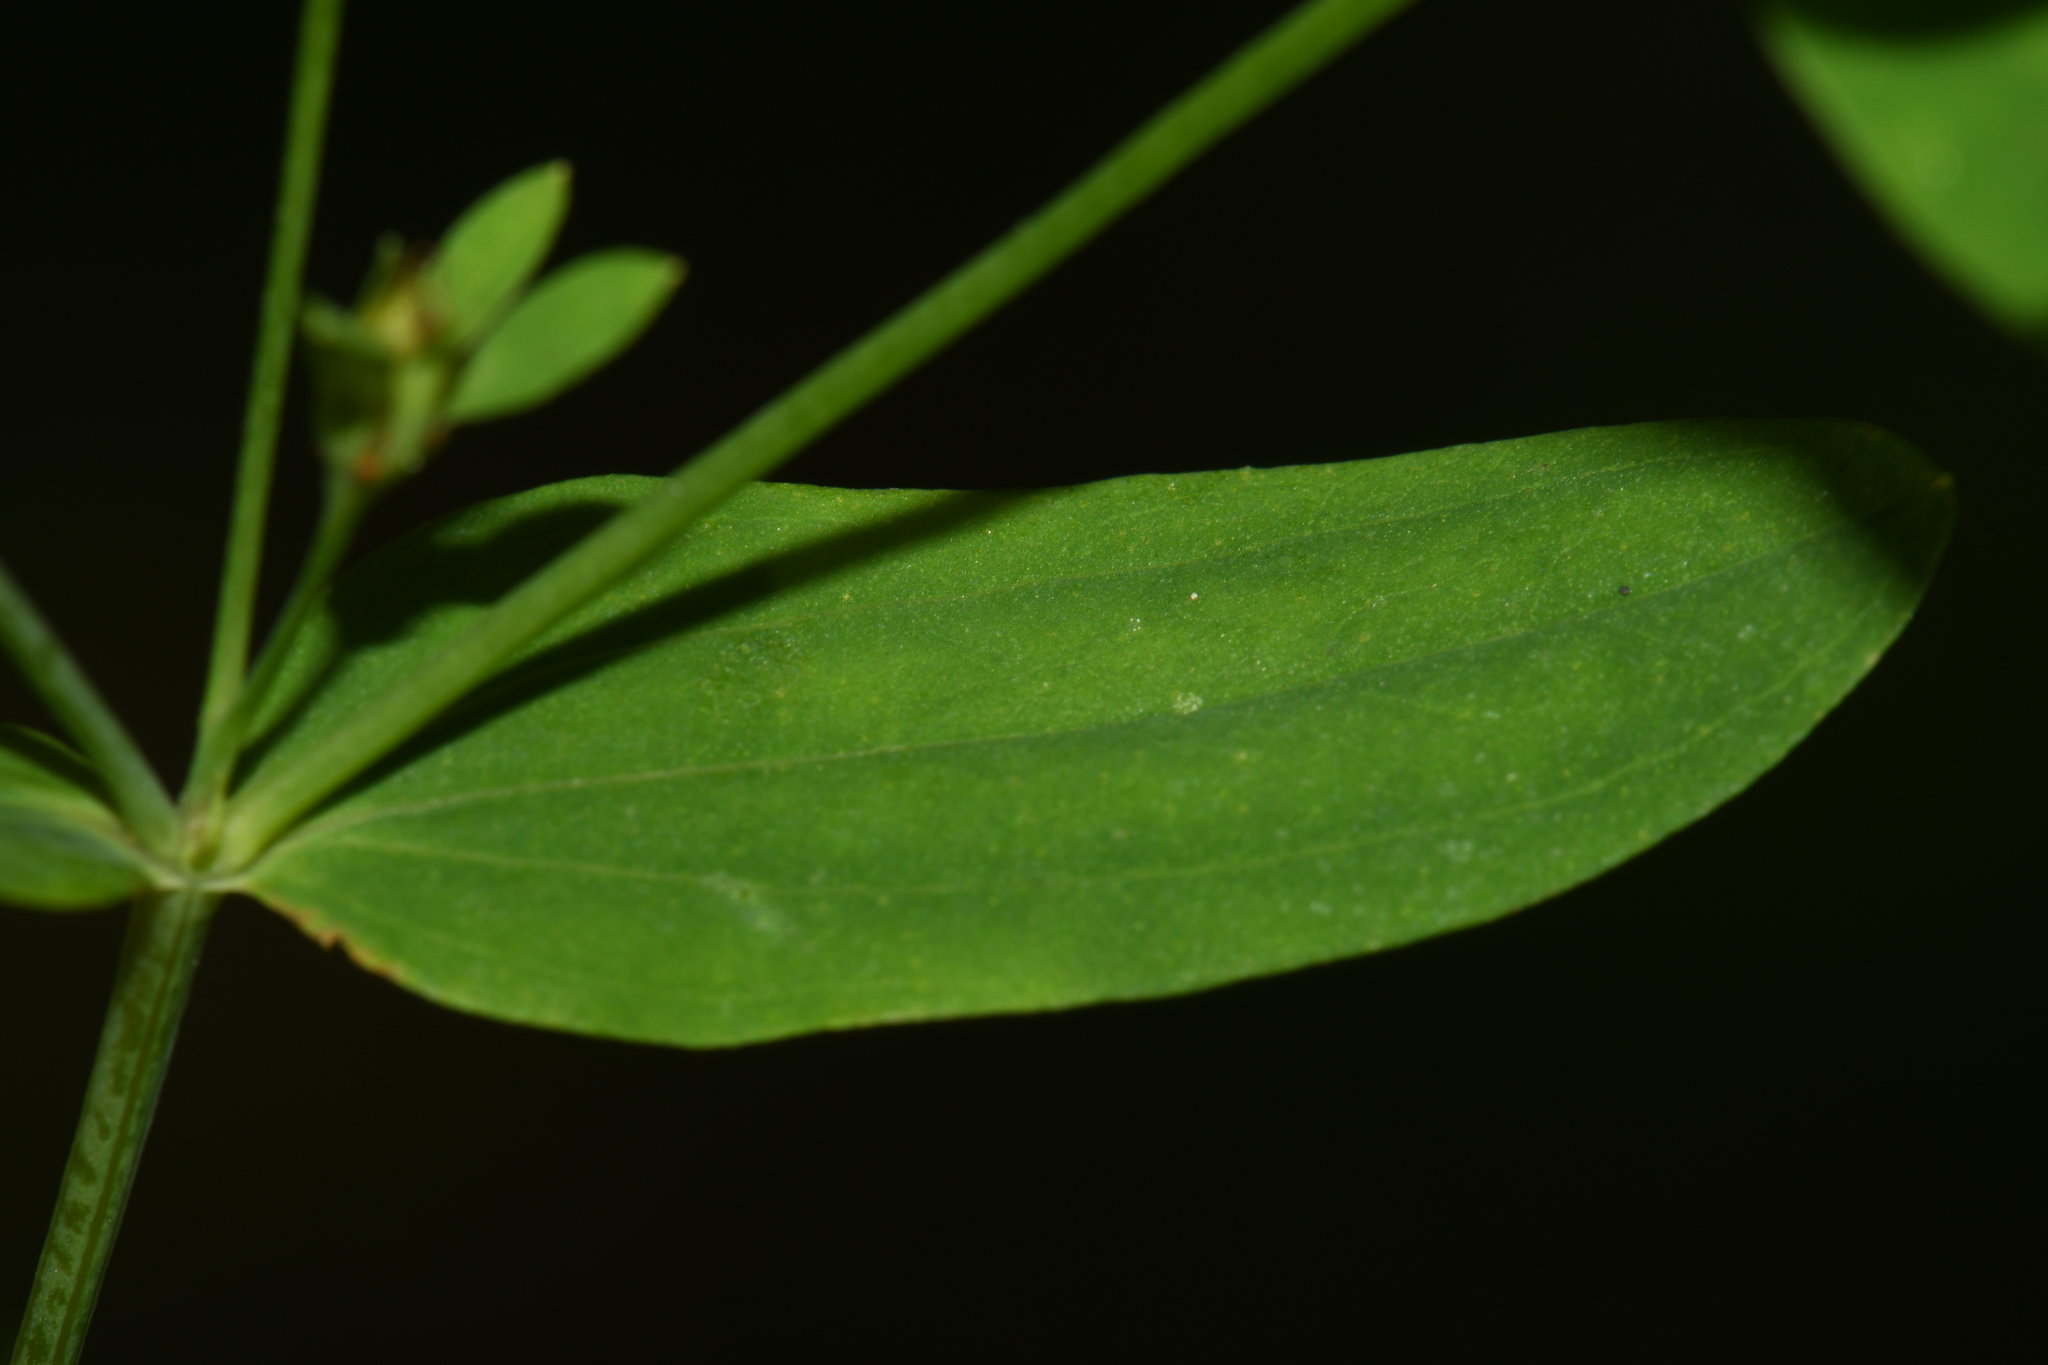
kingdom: Plantae
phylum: Tracheophyta
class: Magnoliopsida
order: Malpighiales
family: Hypericaceae
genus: Hypericum
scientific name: Hypericum mutilum
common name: Dwarf st. john's-wort
